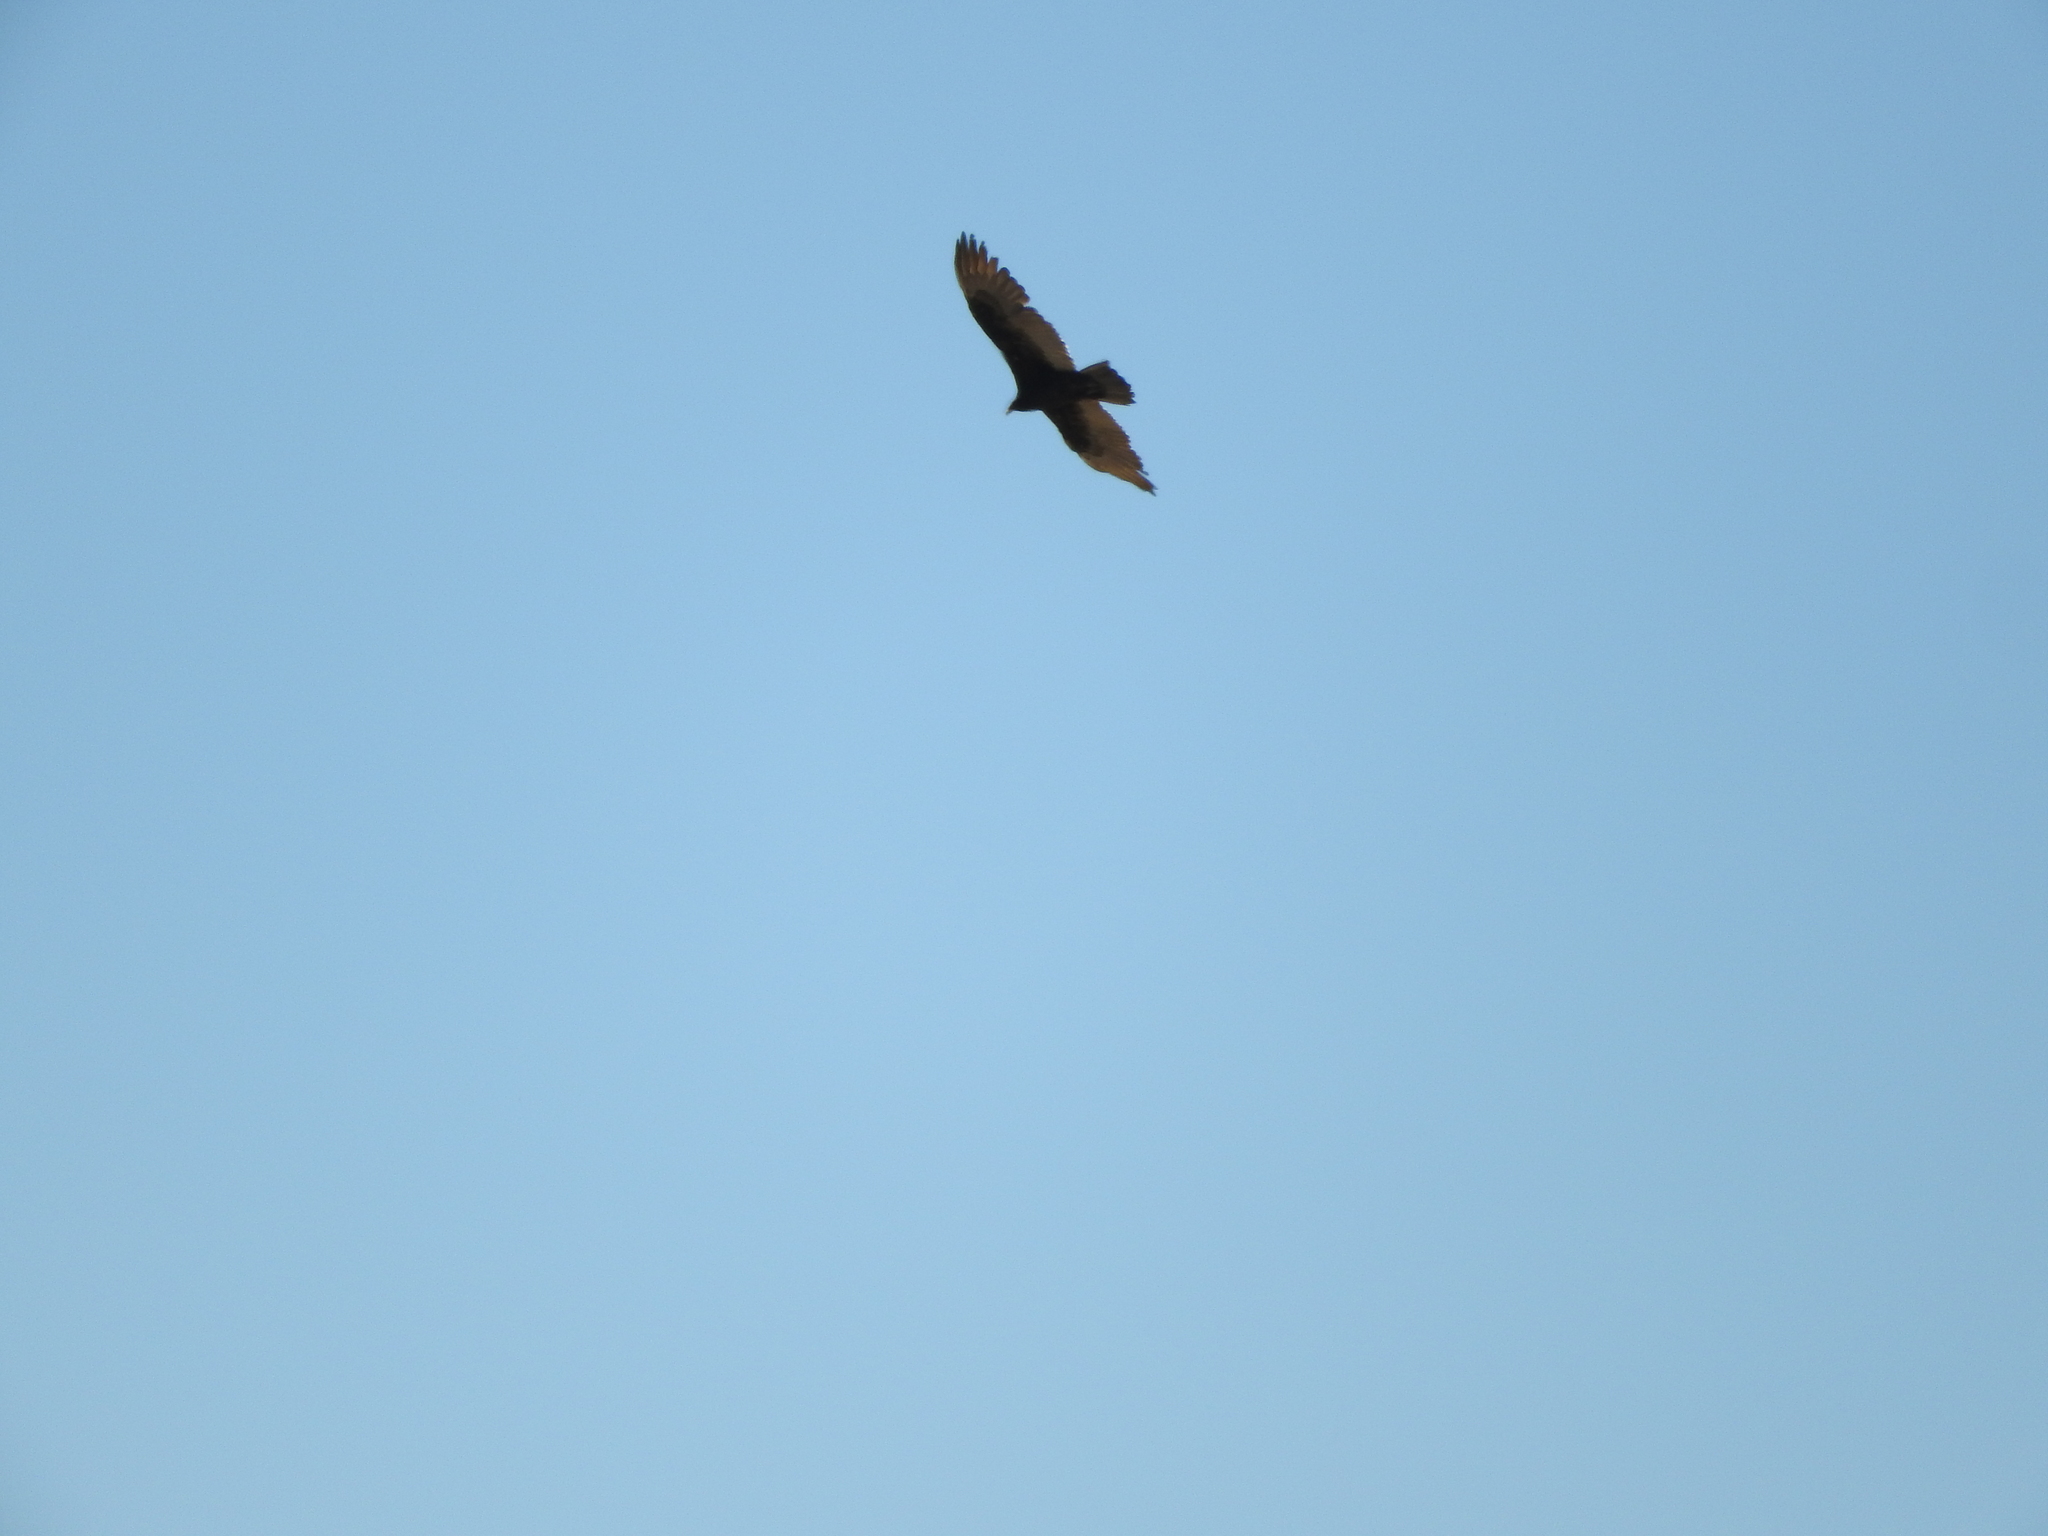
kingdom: Animalia
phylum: Chordata
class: Aves
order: Accipitriformes
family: Cathartidae
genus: Cathartes
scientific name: Cathartes aura
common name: Turkey vulture
